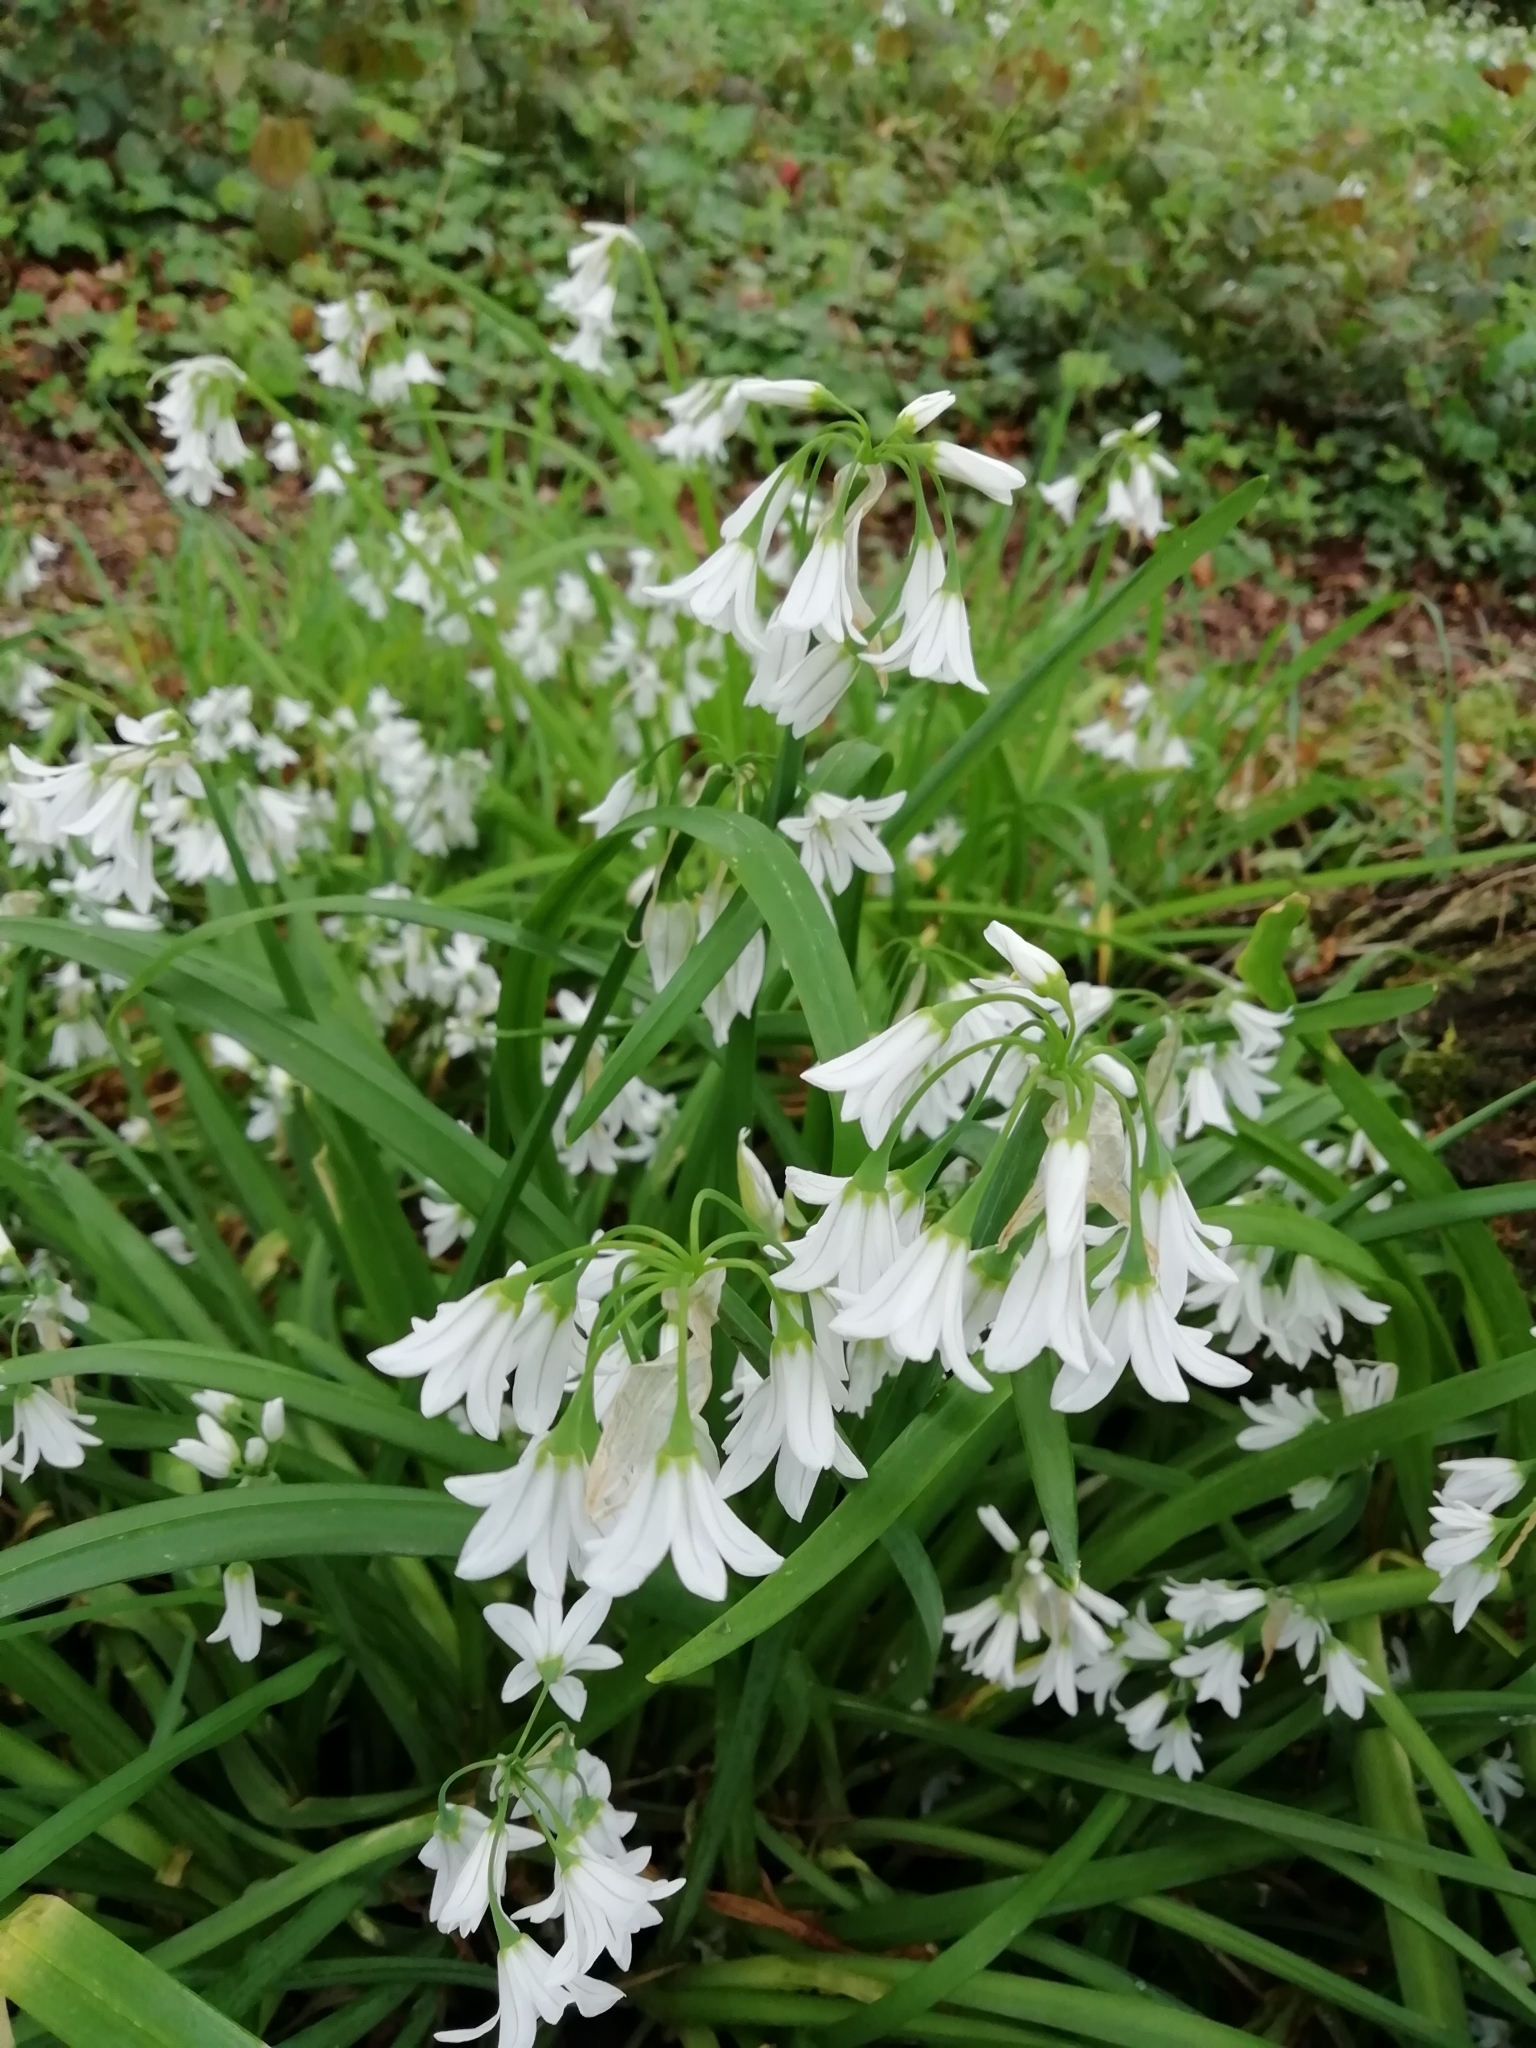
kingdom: Plantae
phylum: Tracheophyta
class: Liliopsida
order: Asparagales
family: Amaryllidaceae
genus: Allium
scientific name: Allium triquetrum
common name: Three-cornered garlic
